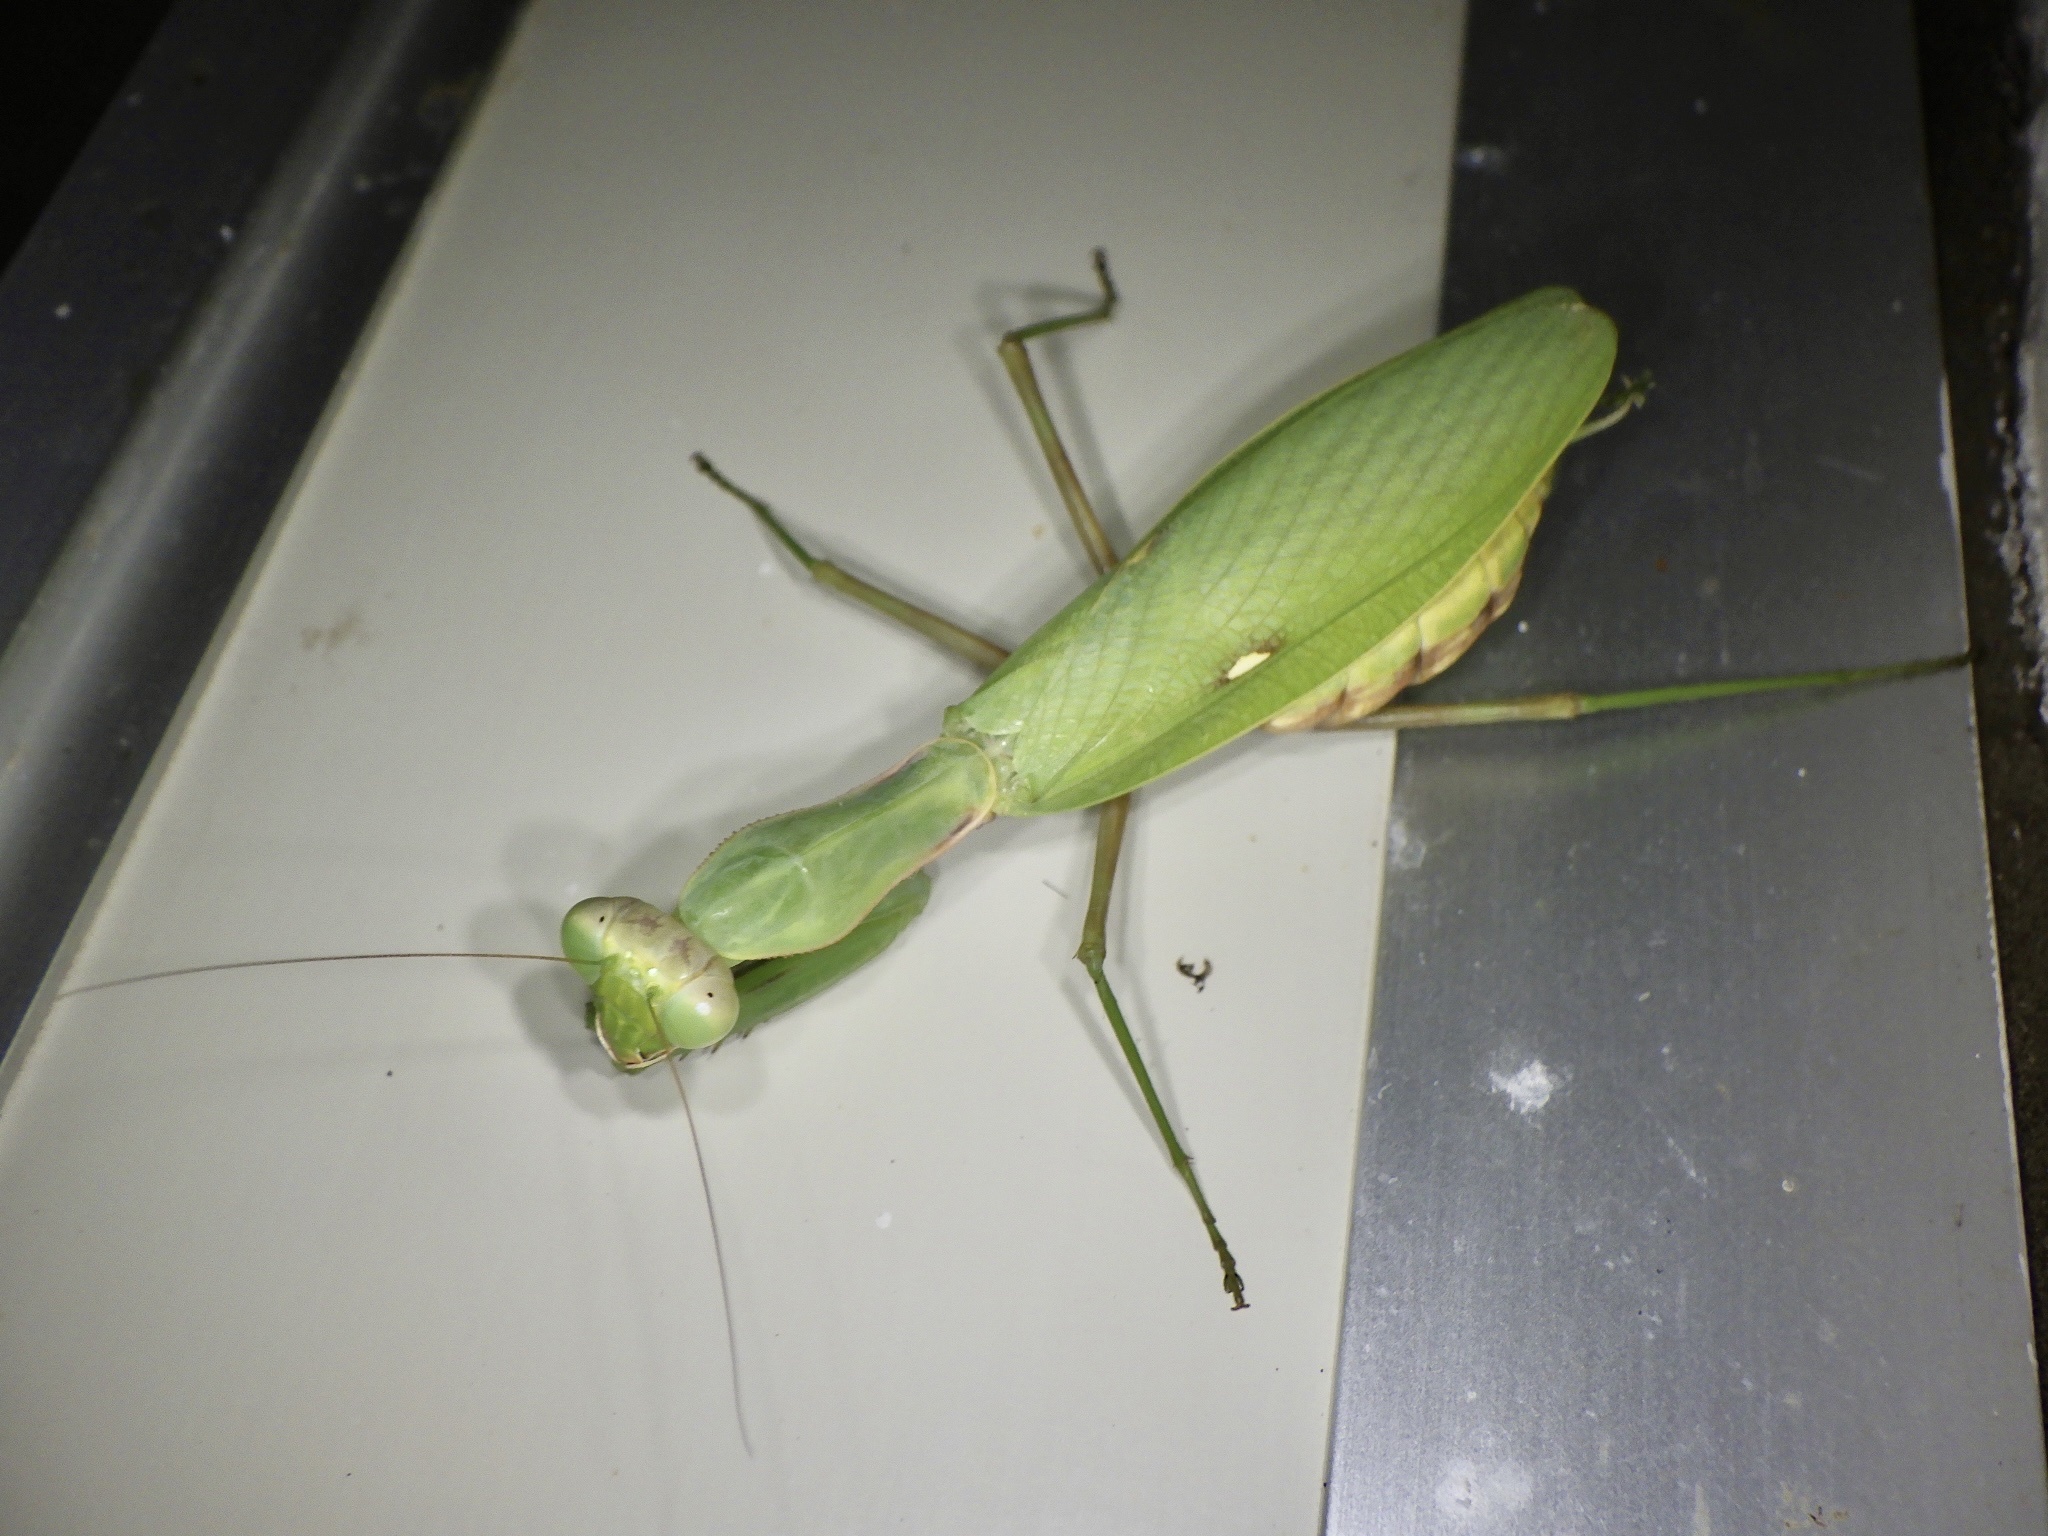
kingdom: Animalia
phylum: Arthropoda
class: Insecta
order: Mantodea
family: Mantidae
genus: Hierodula
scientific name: Hierodula patellifera
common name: Asian mantis
